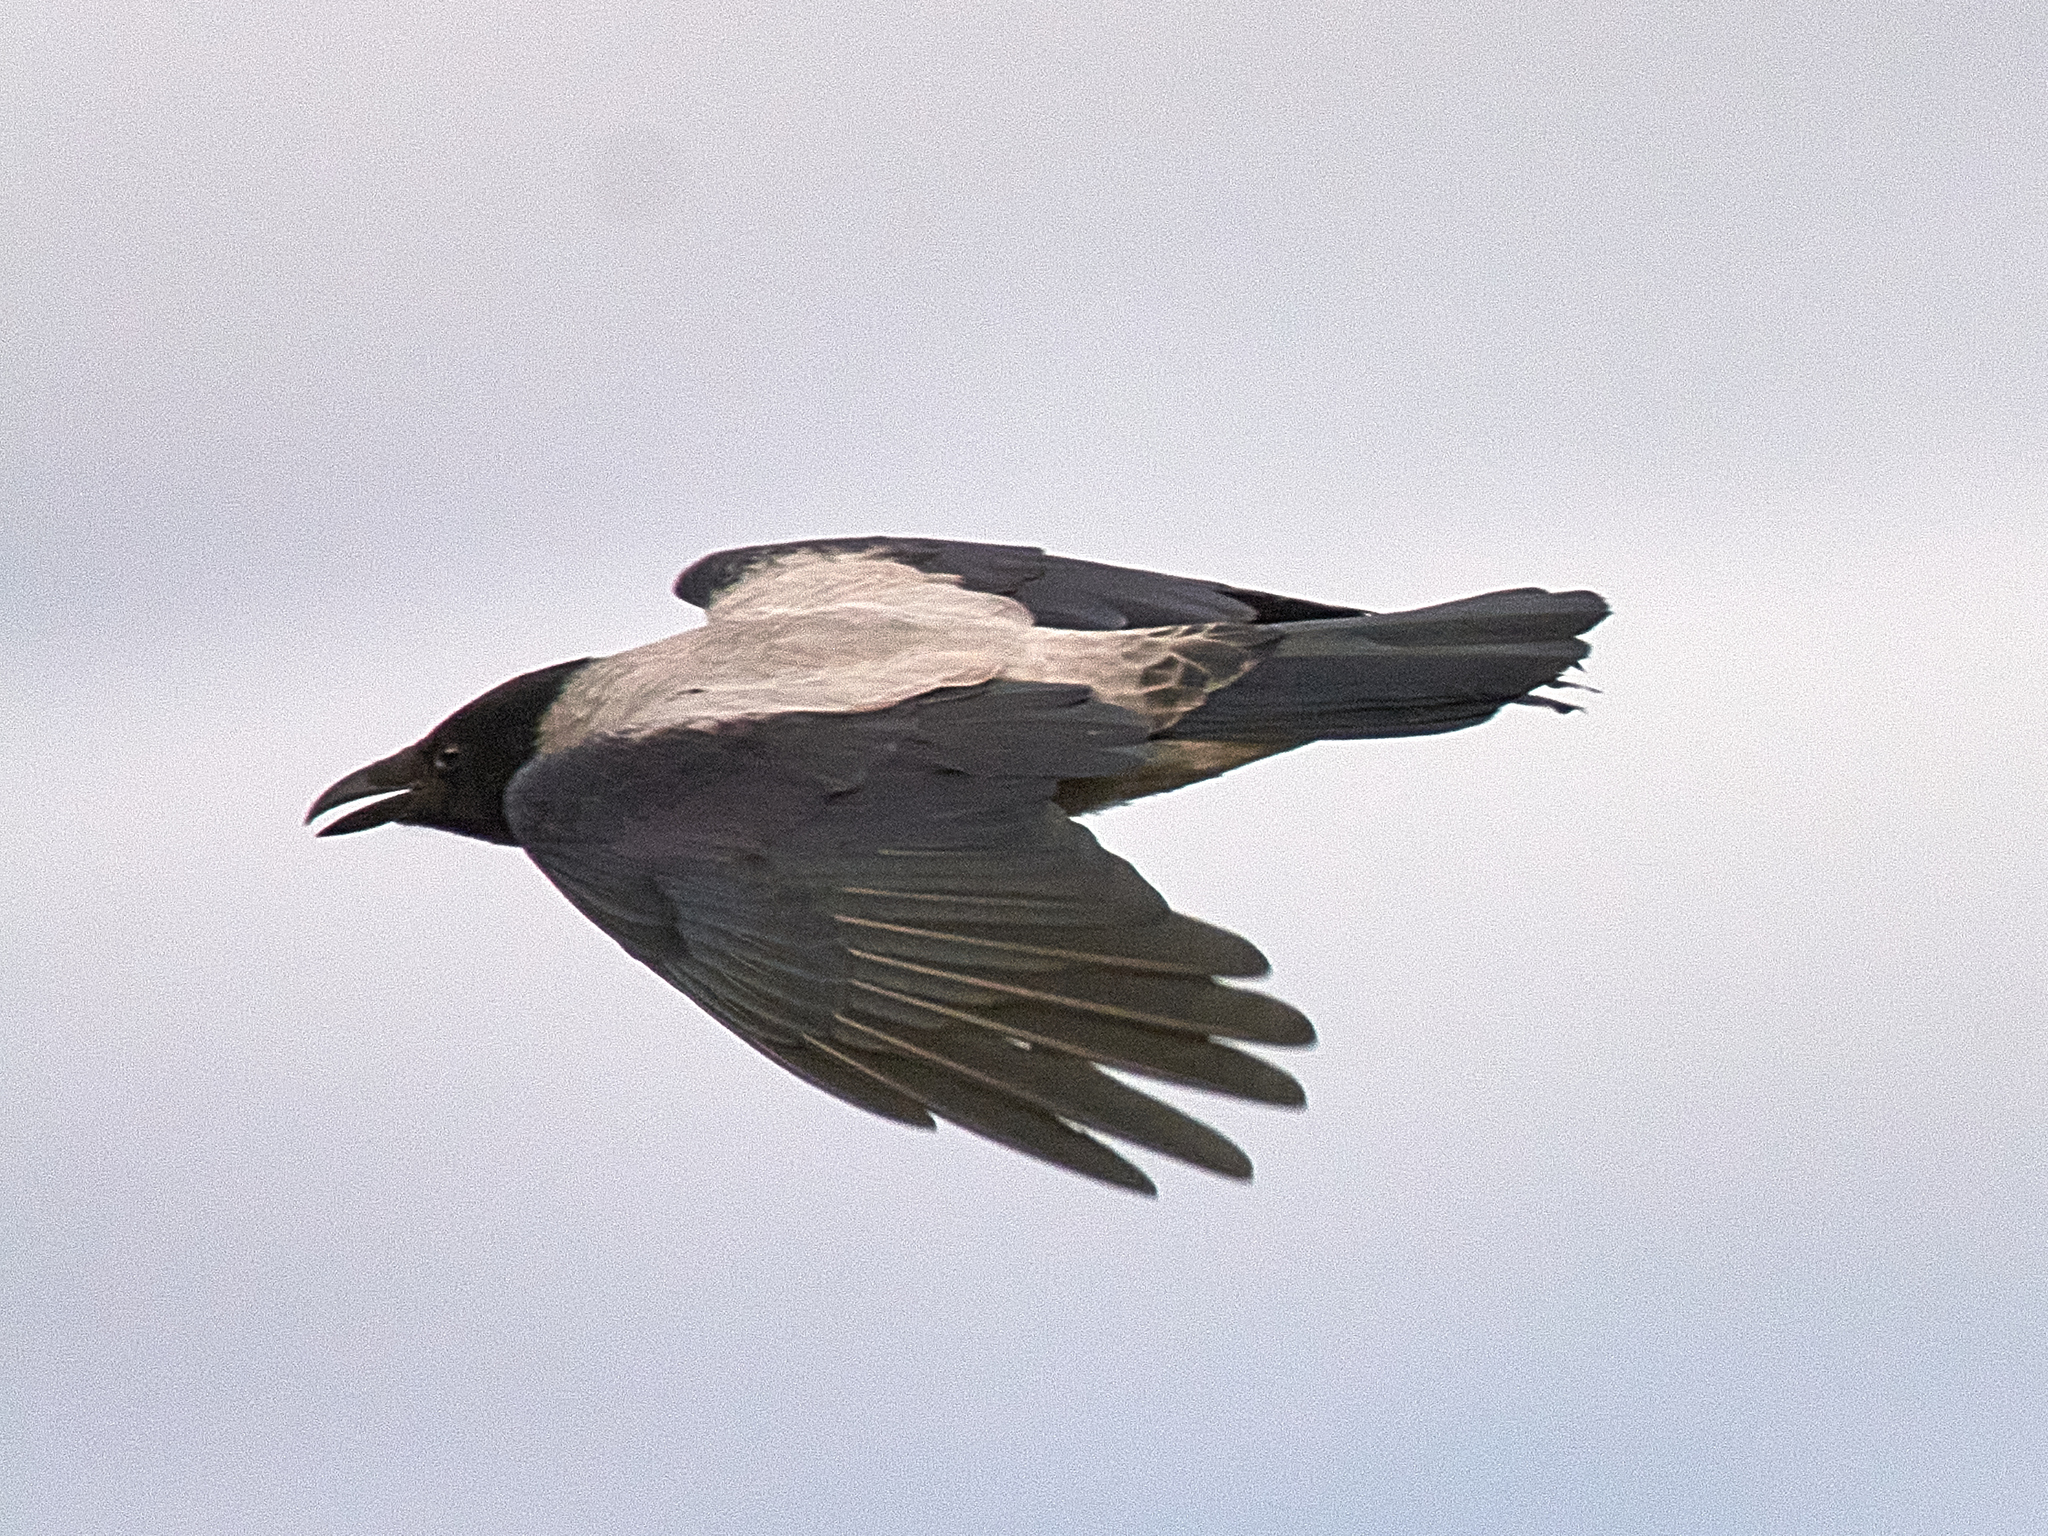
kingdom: Animalia
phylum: Chordata
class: Aves
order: Passeriformes
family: Corvidae
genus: Corvus
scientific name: Corvus cornix
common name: Hooded crow
